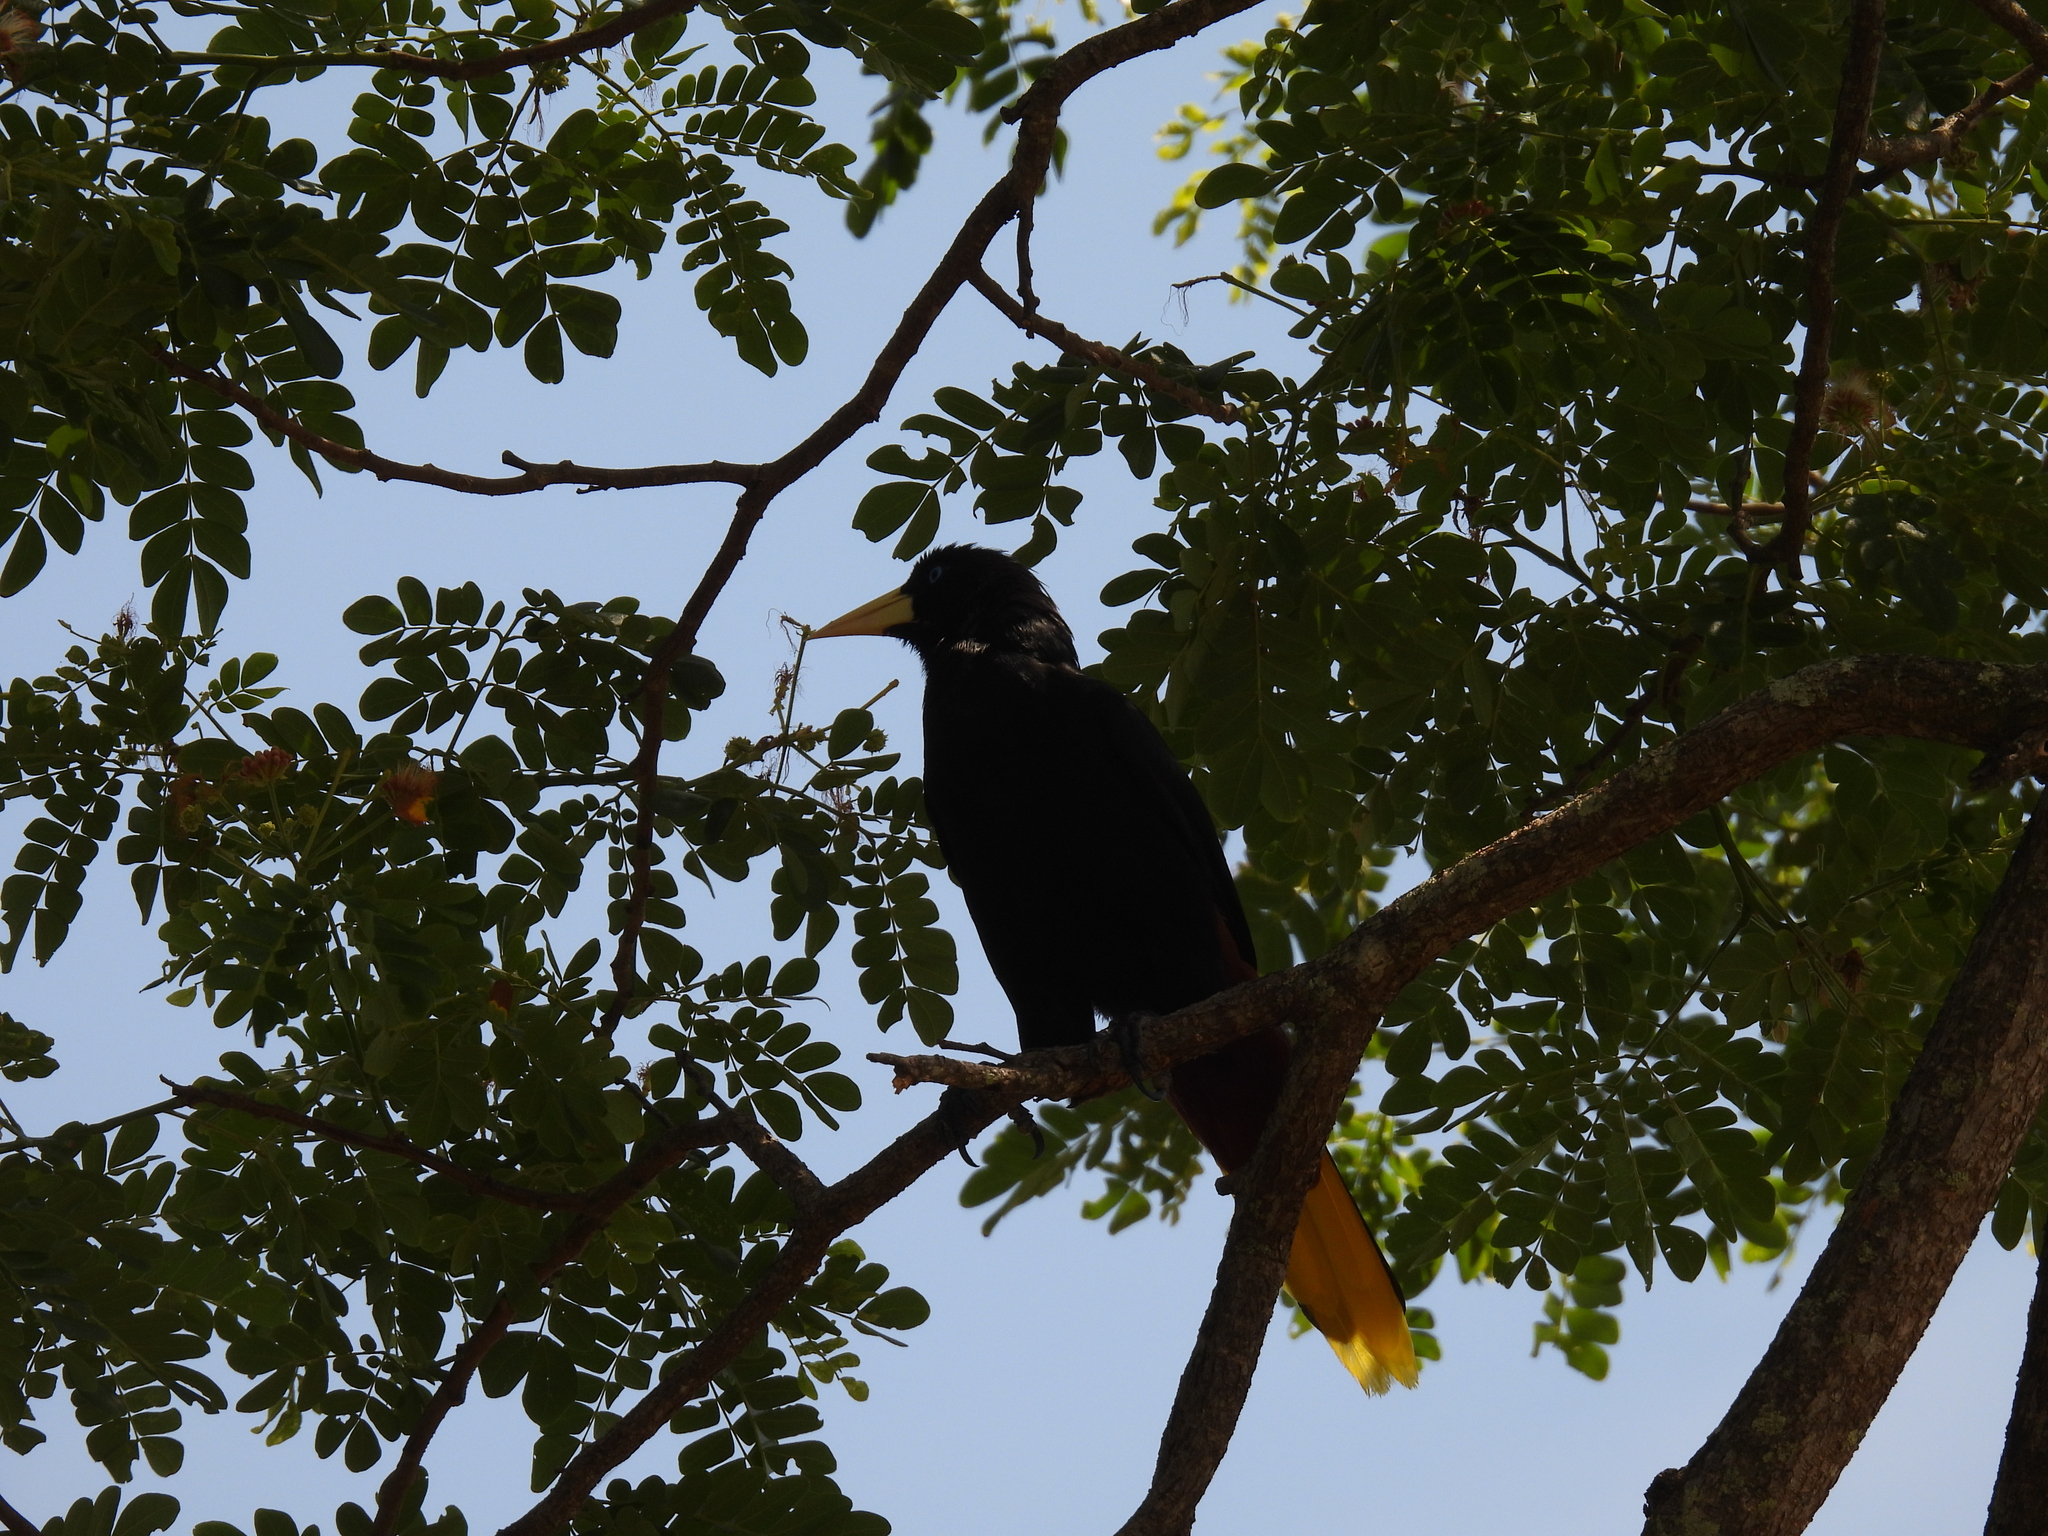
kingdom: Animalia
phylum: Chordata
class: Aves
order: Passeriformes
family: Icteridae
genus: Psarocolius
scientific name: Psarocolius decumanus
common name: Crested oropendola
